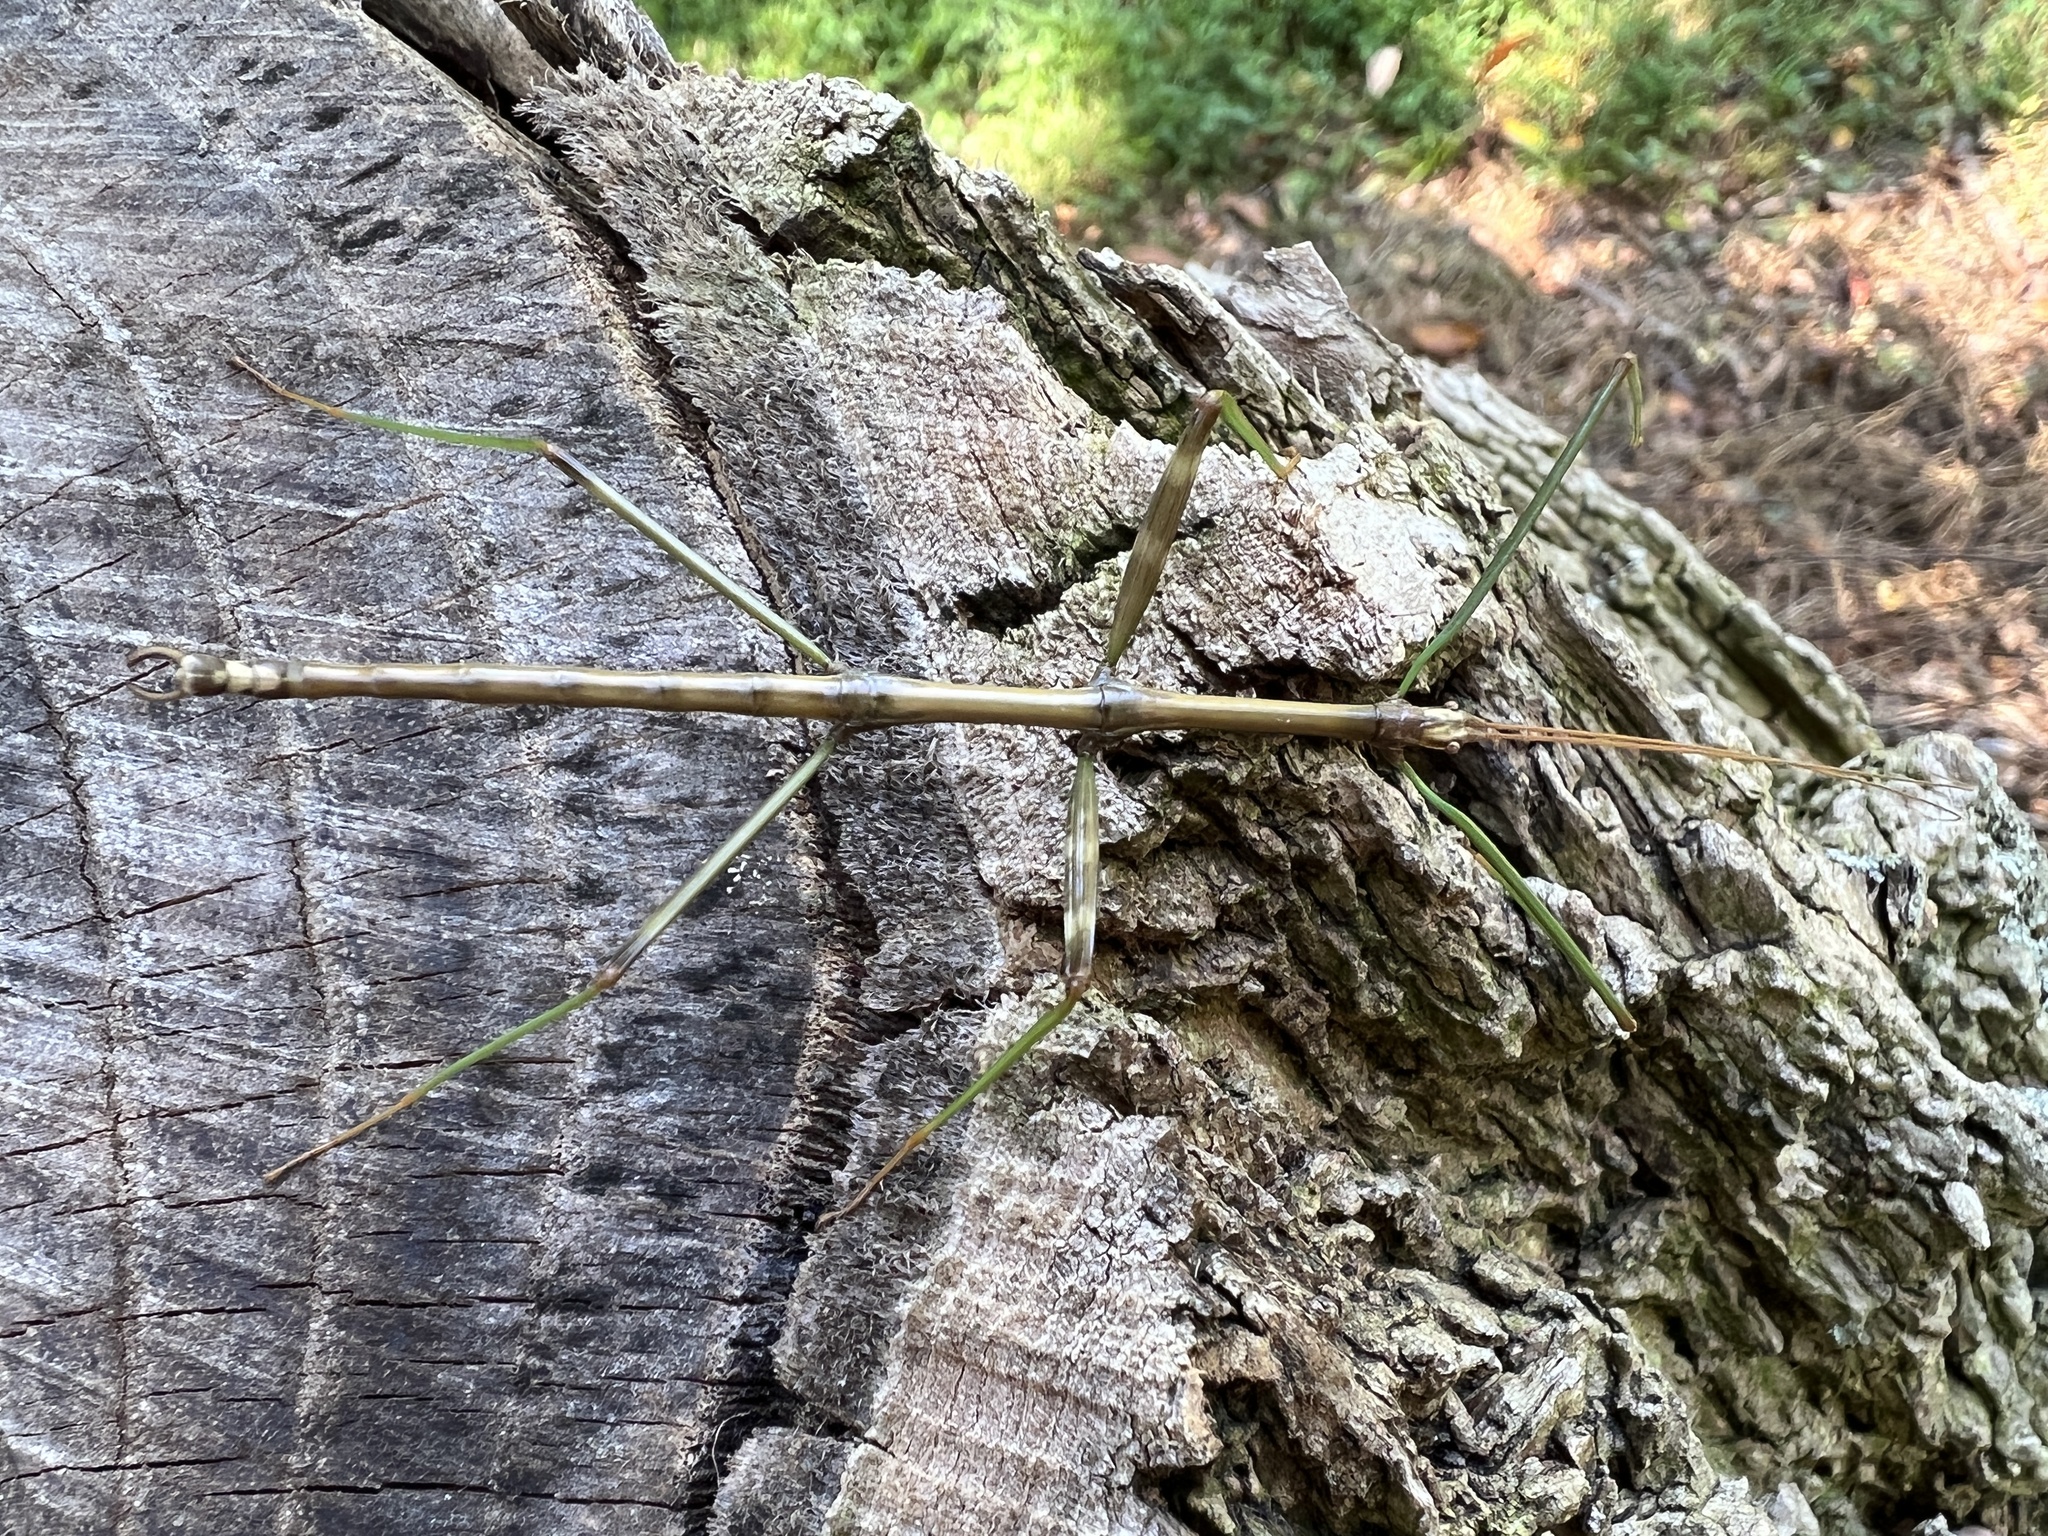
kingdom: Animalia
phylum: Arthropoda
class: Insecta
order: Phasmida
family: Diapheromeridae
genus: Diapheromera
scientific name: Diapheromera femorata
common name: Common american walkingstick
